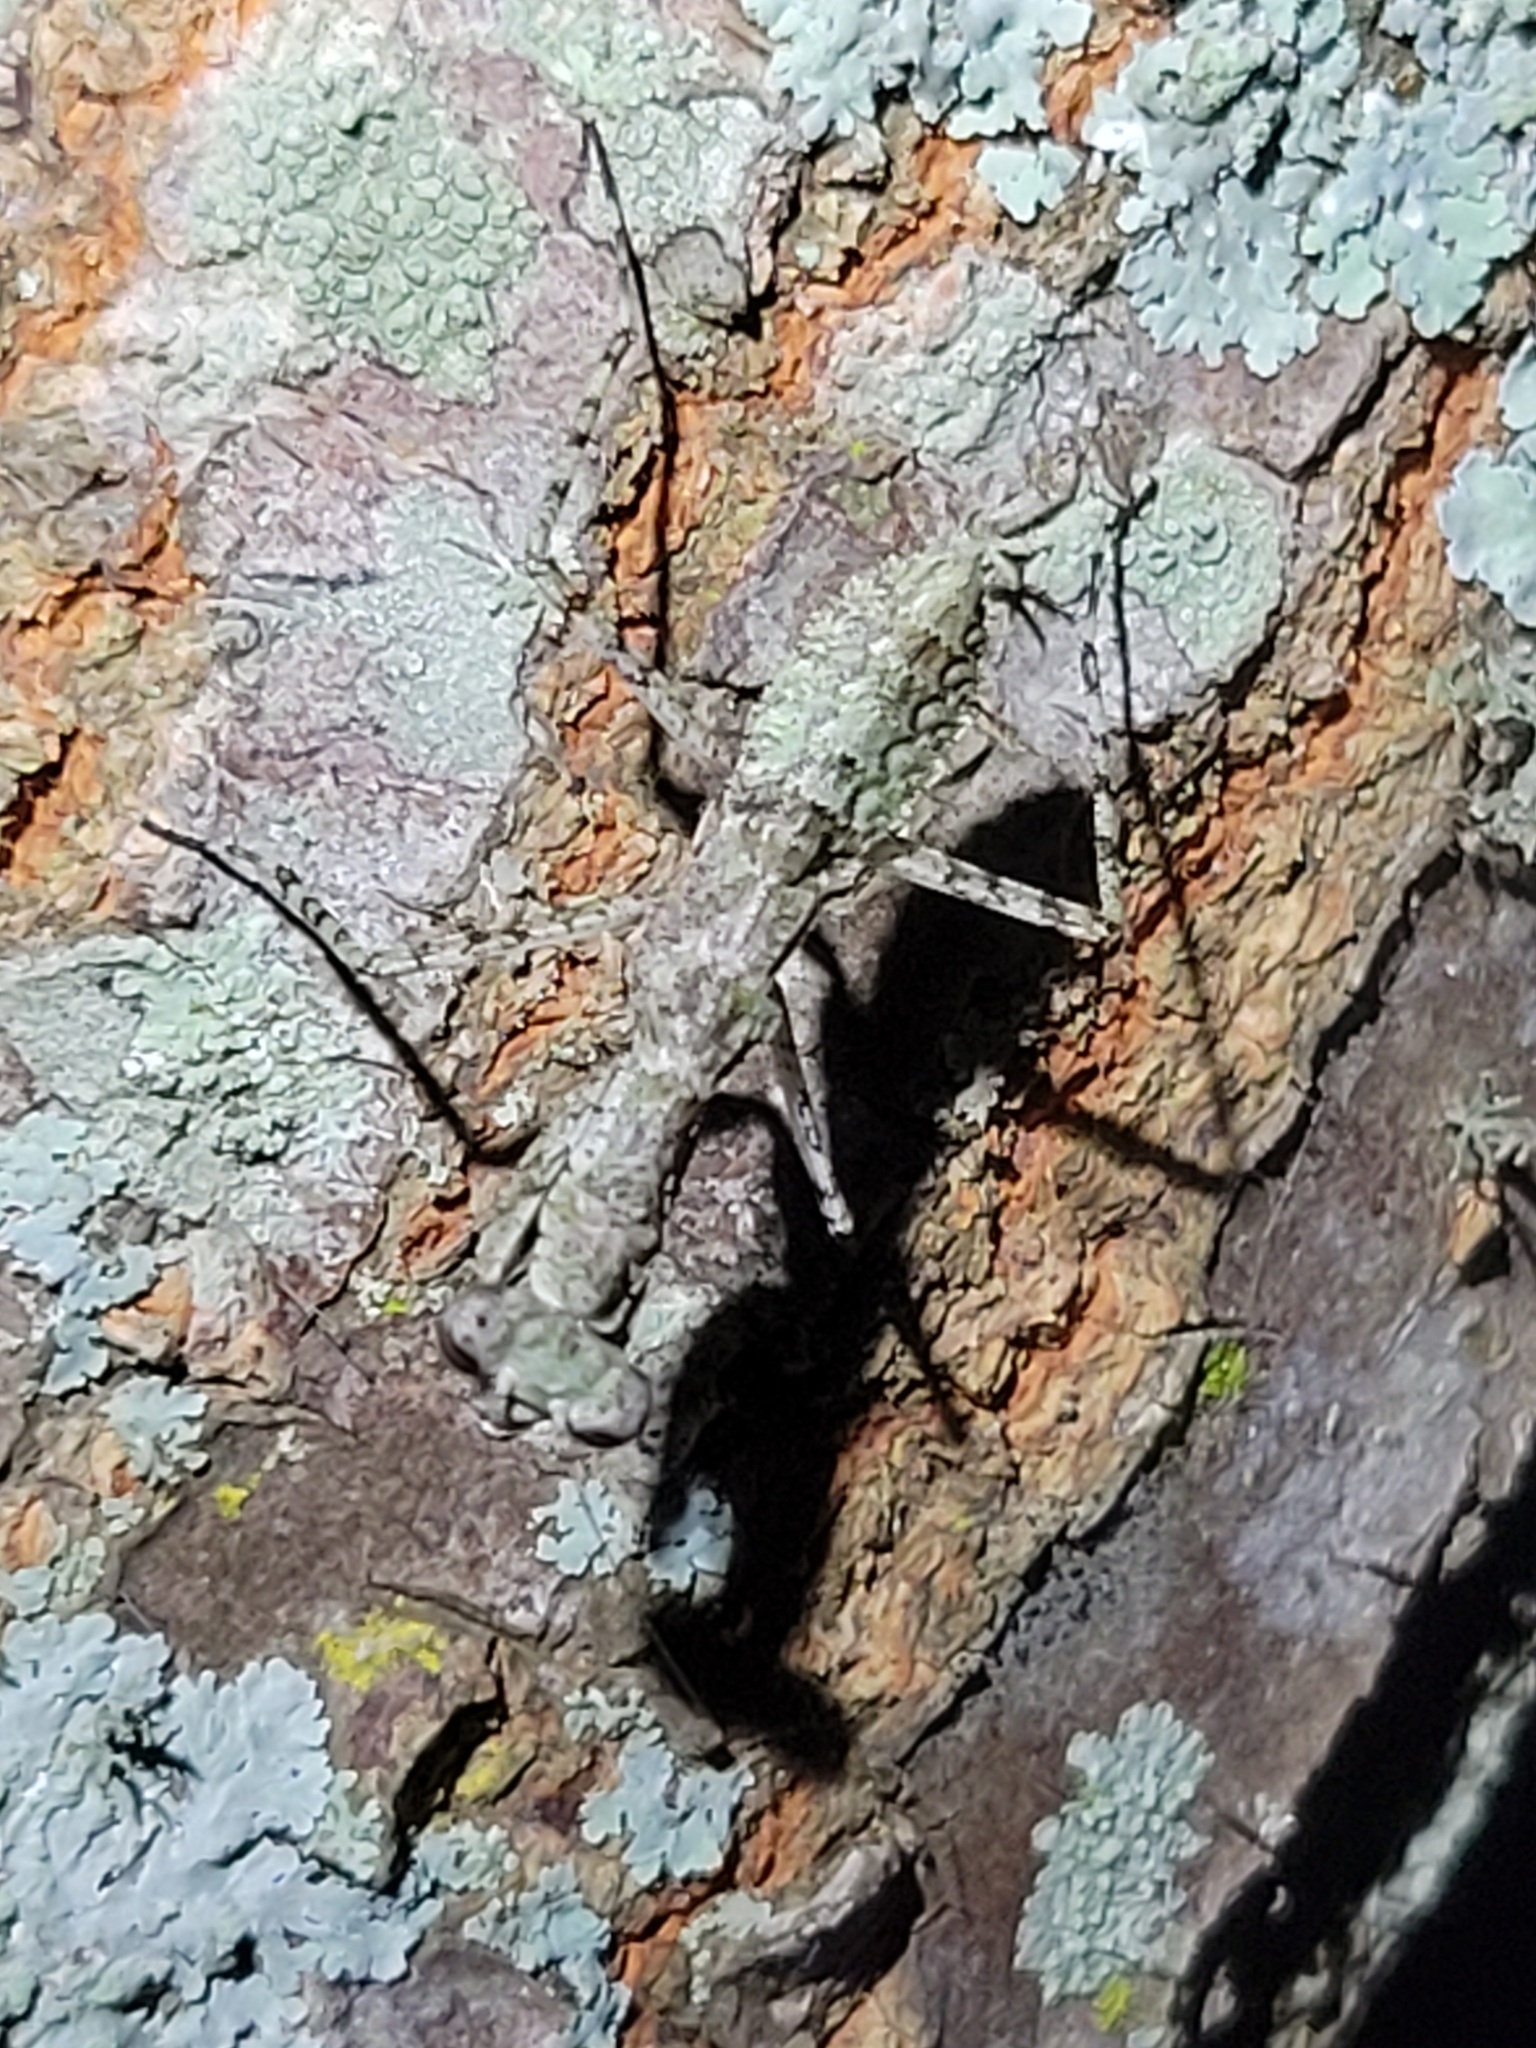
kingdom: Animalia
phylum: Arthropoda
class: Insecta
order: Mantodea
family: Epaphroditidae
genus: Gonatista
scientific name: Gonatista grisea
